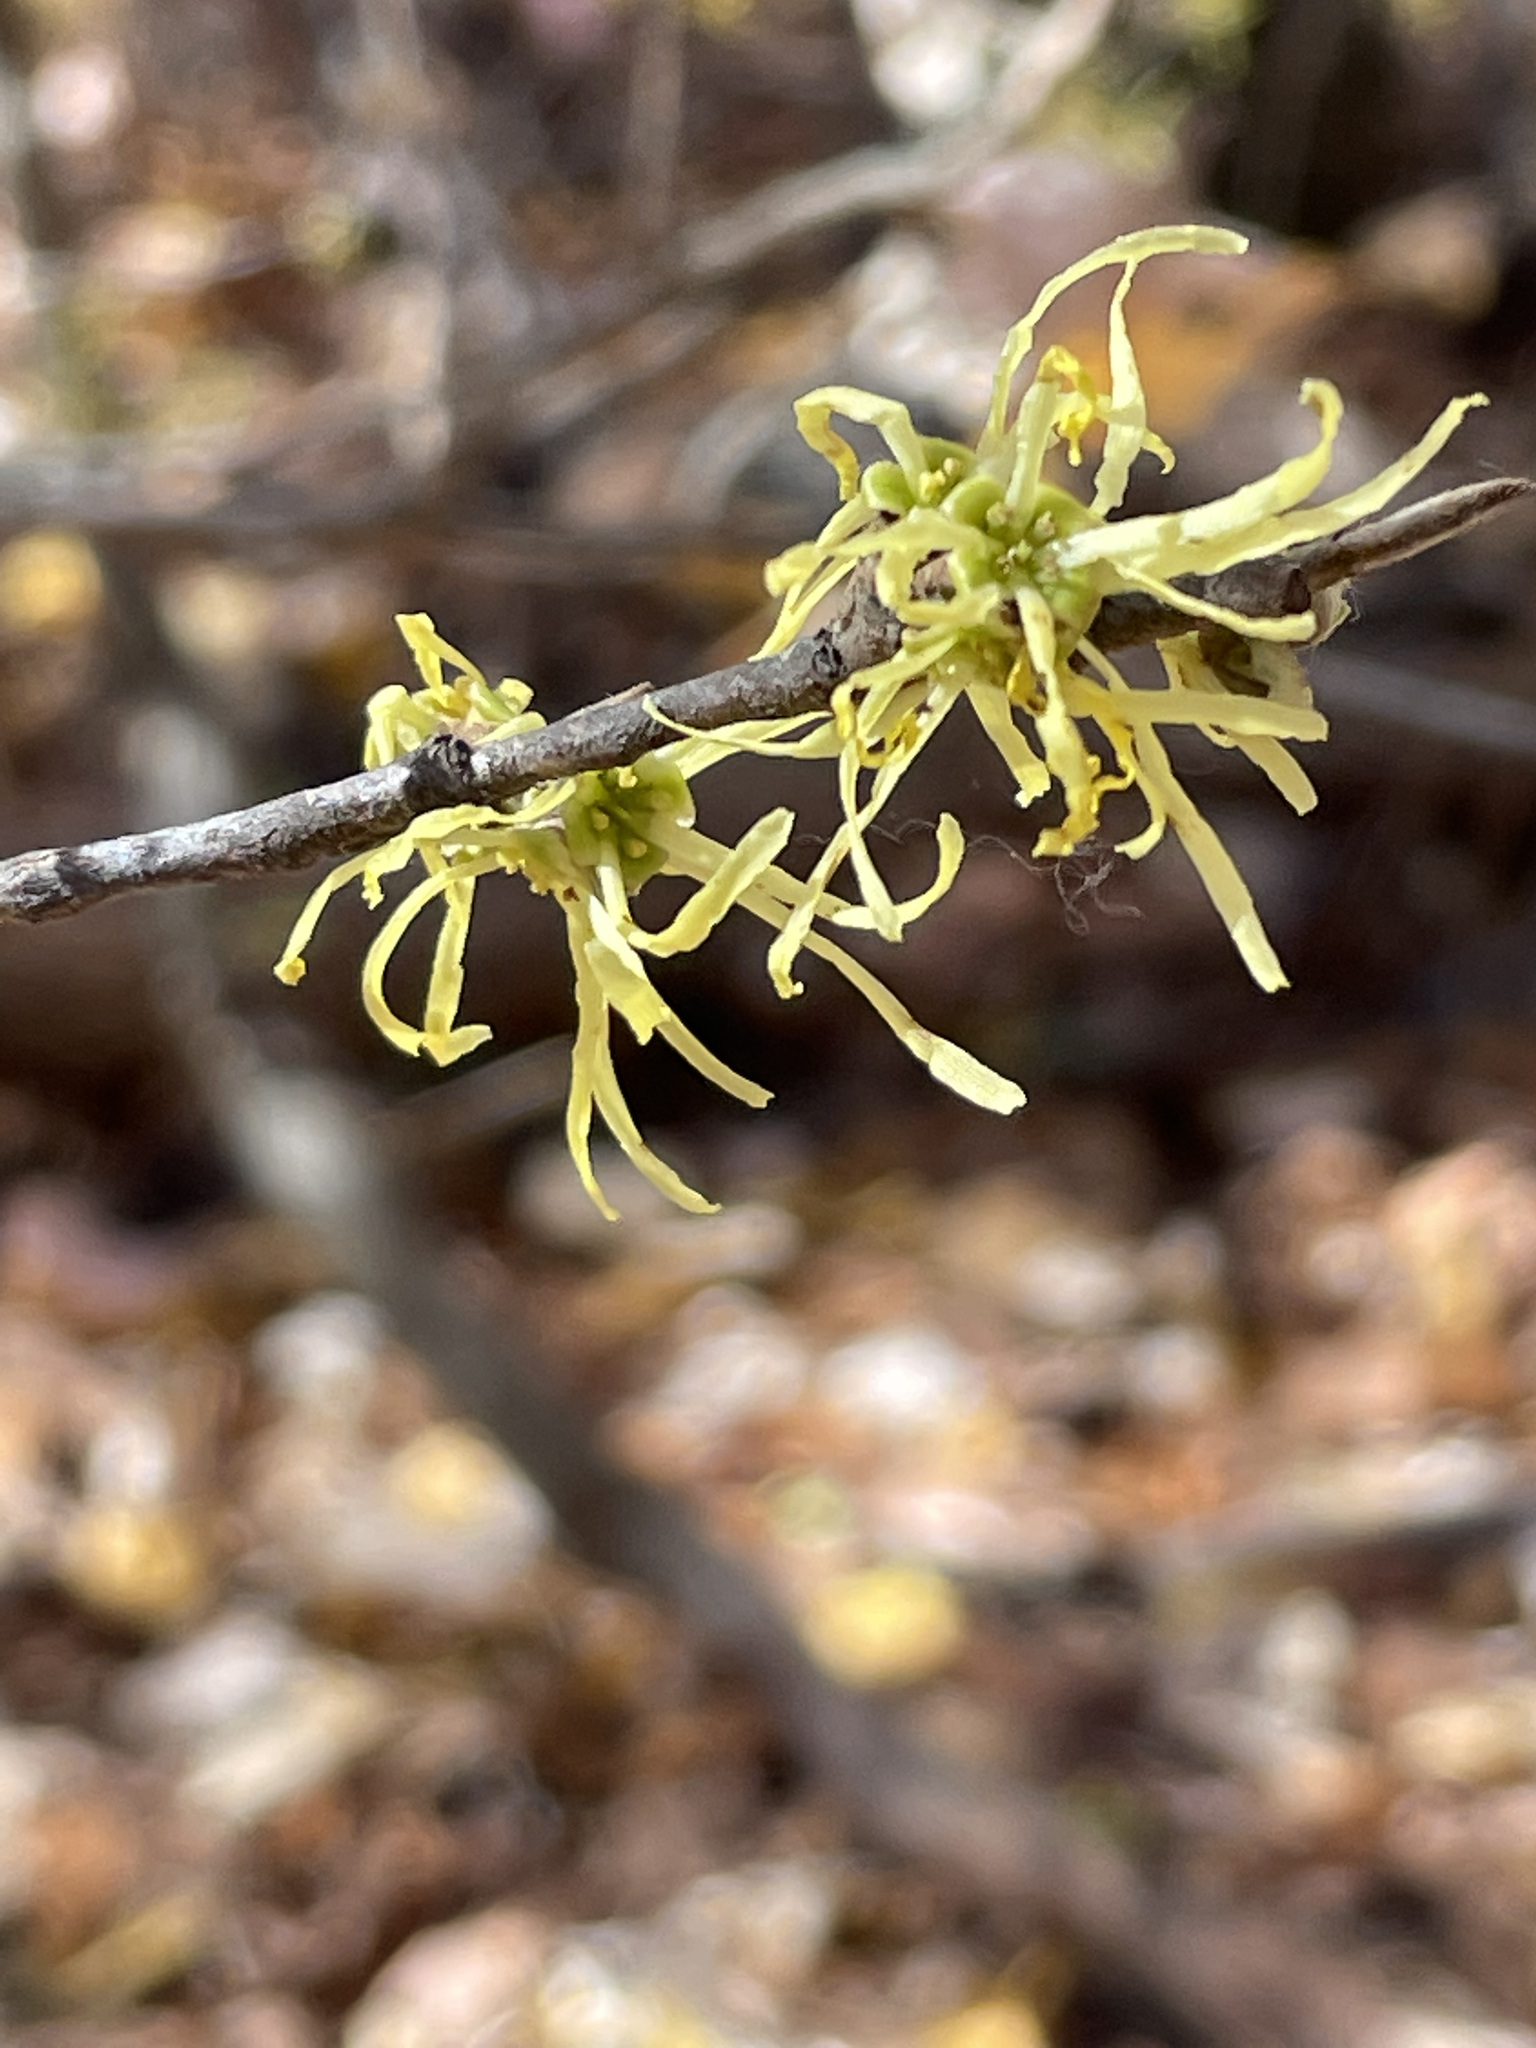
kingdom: Plantae
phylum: Tracheophyta
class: Magnoliopsida
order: Saxifragales
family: Hamamelidaceae
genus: Hamamelis
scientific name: Hamamelis virginiana
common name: Witch-hazel
